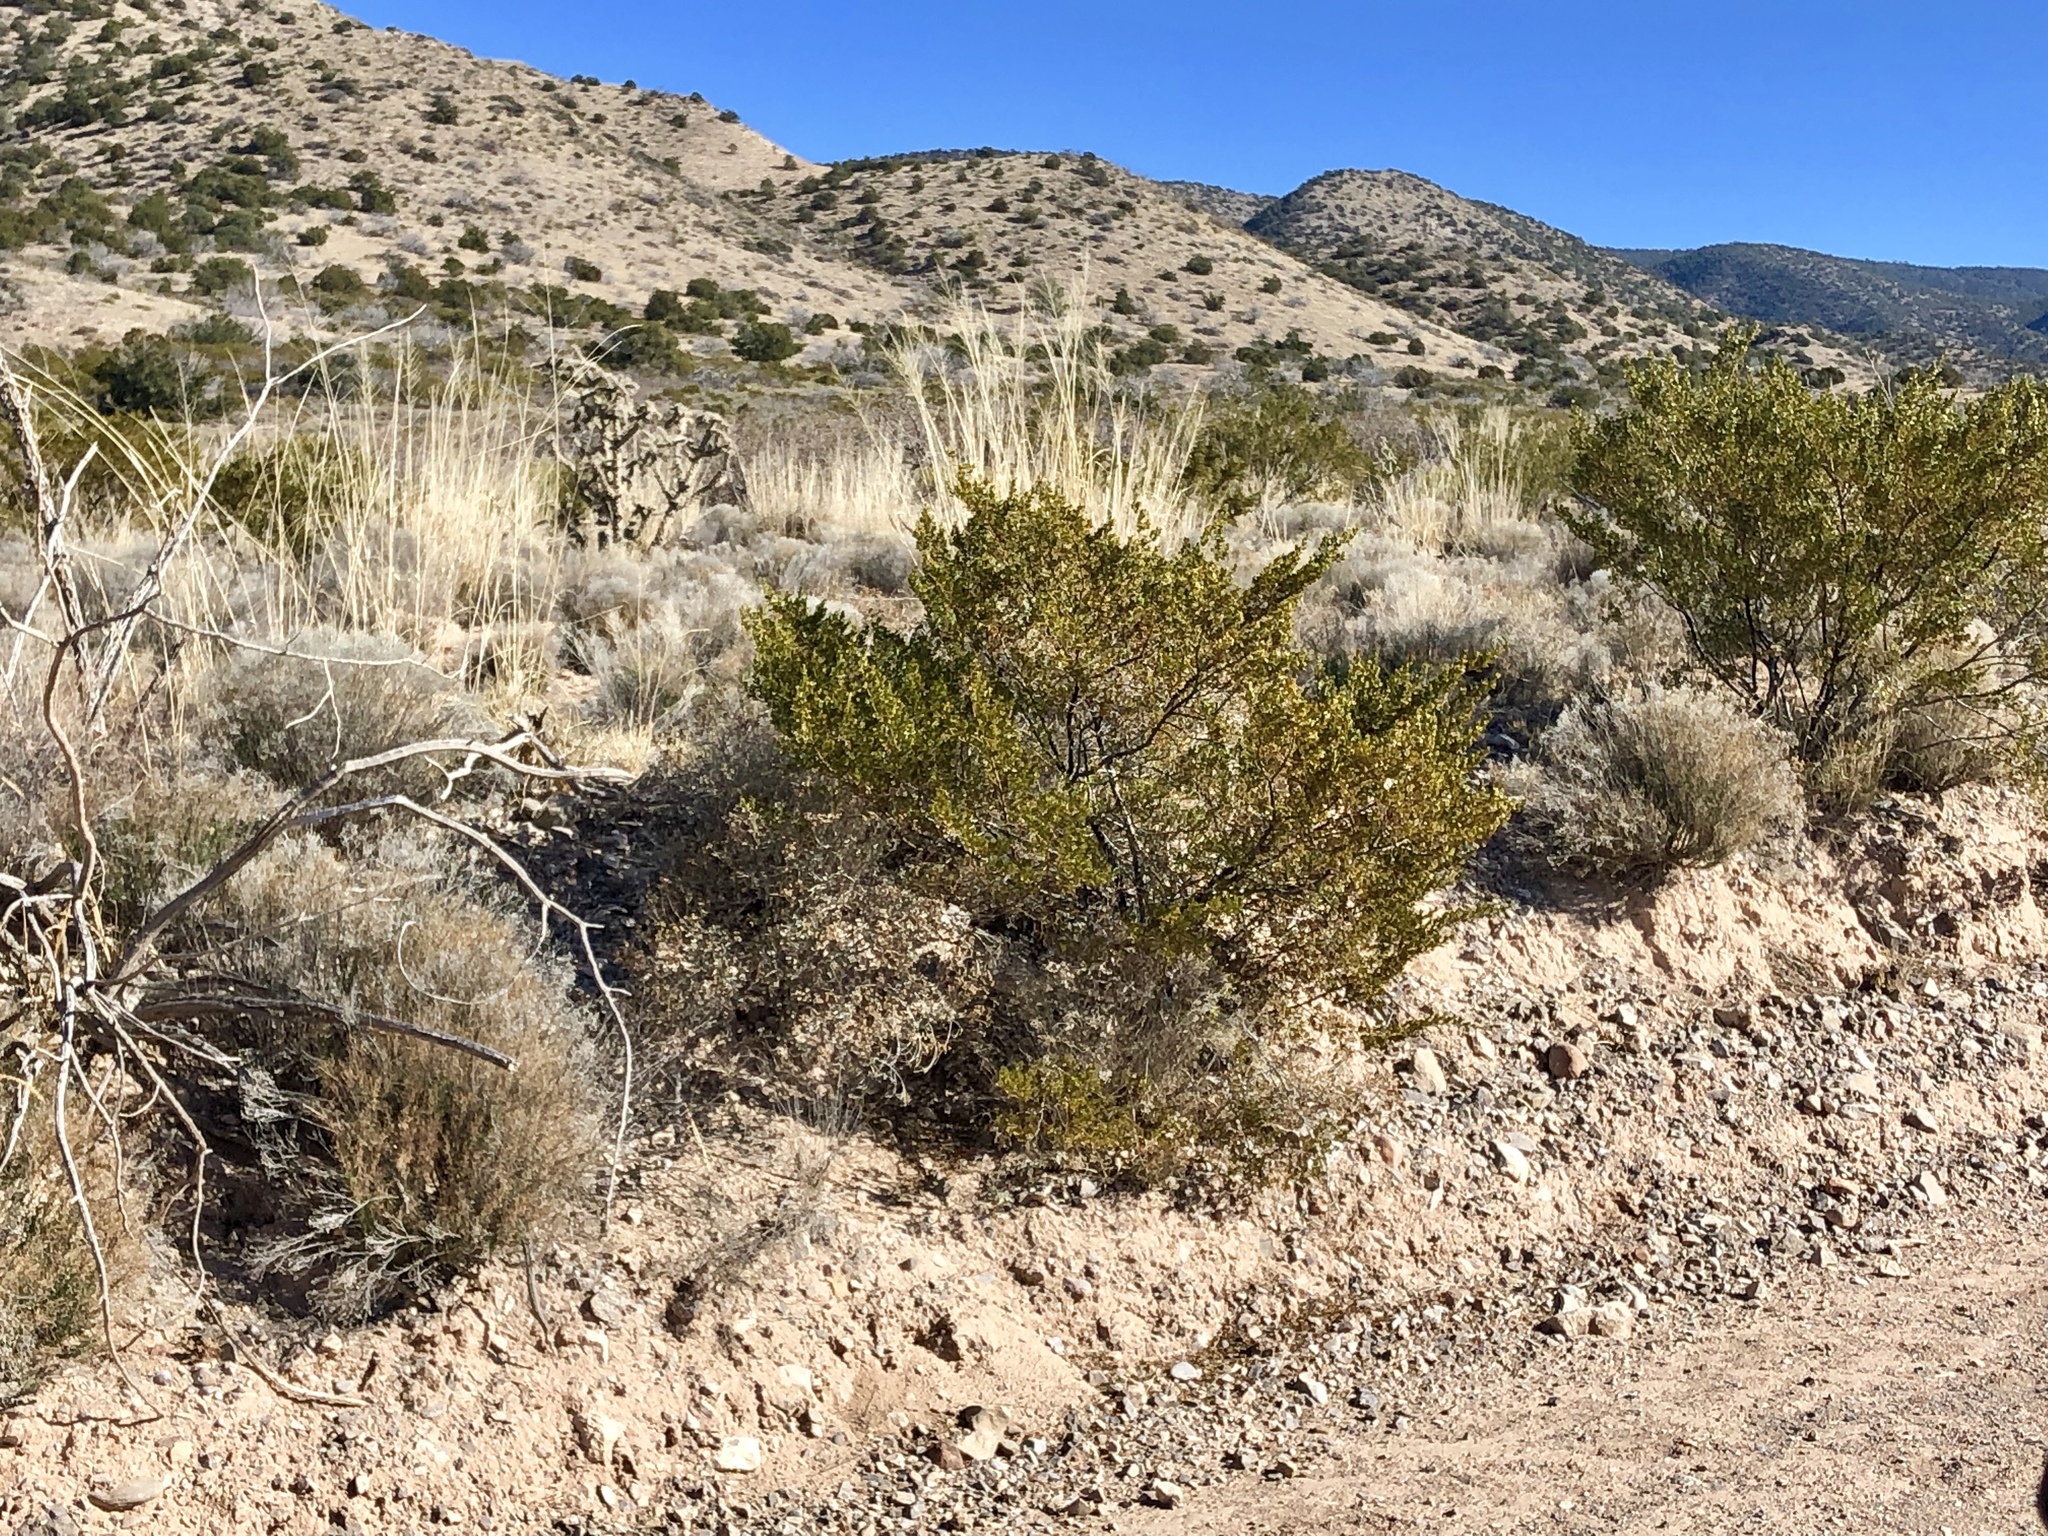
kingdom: Plantae
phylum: Tracheophyta
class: Magnoliopsida
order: Zygophyllales
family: Zygophyllaceae
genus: Larrea
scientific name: Larrea tridentata
